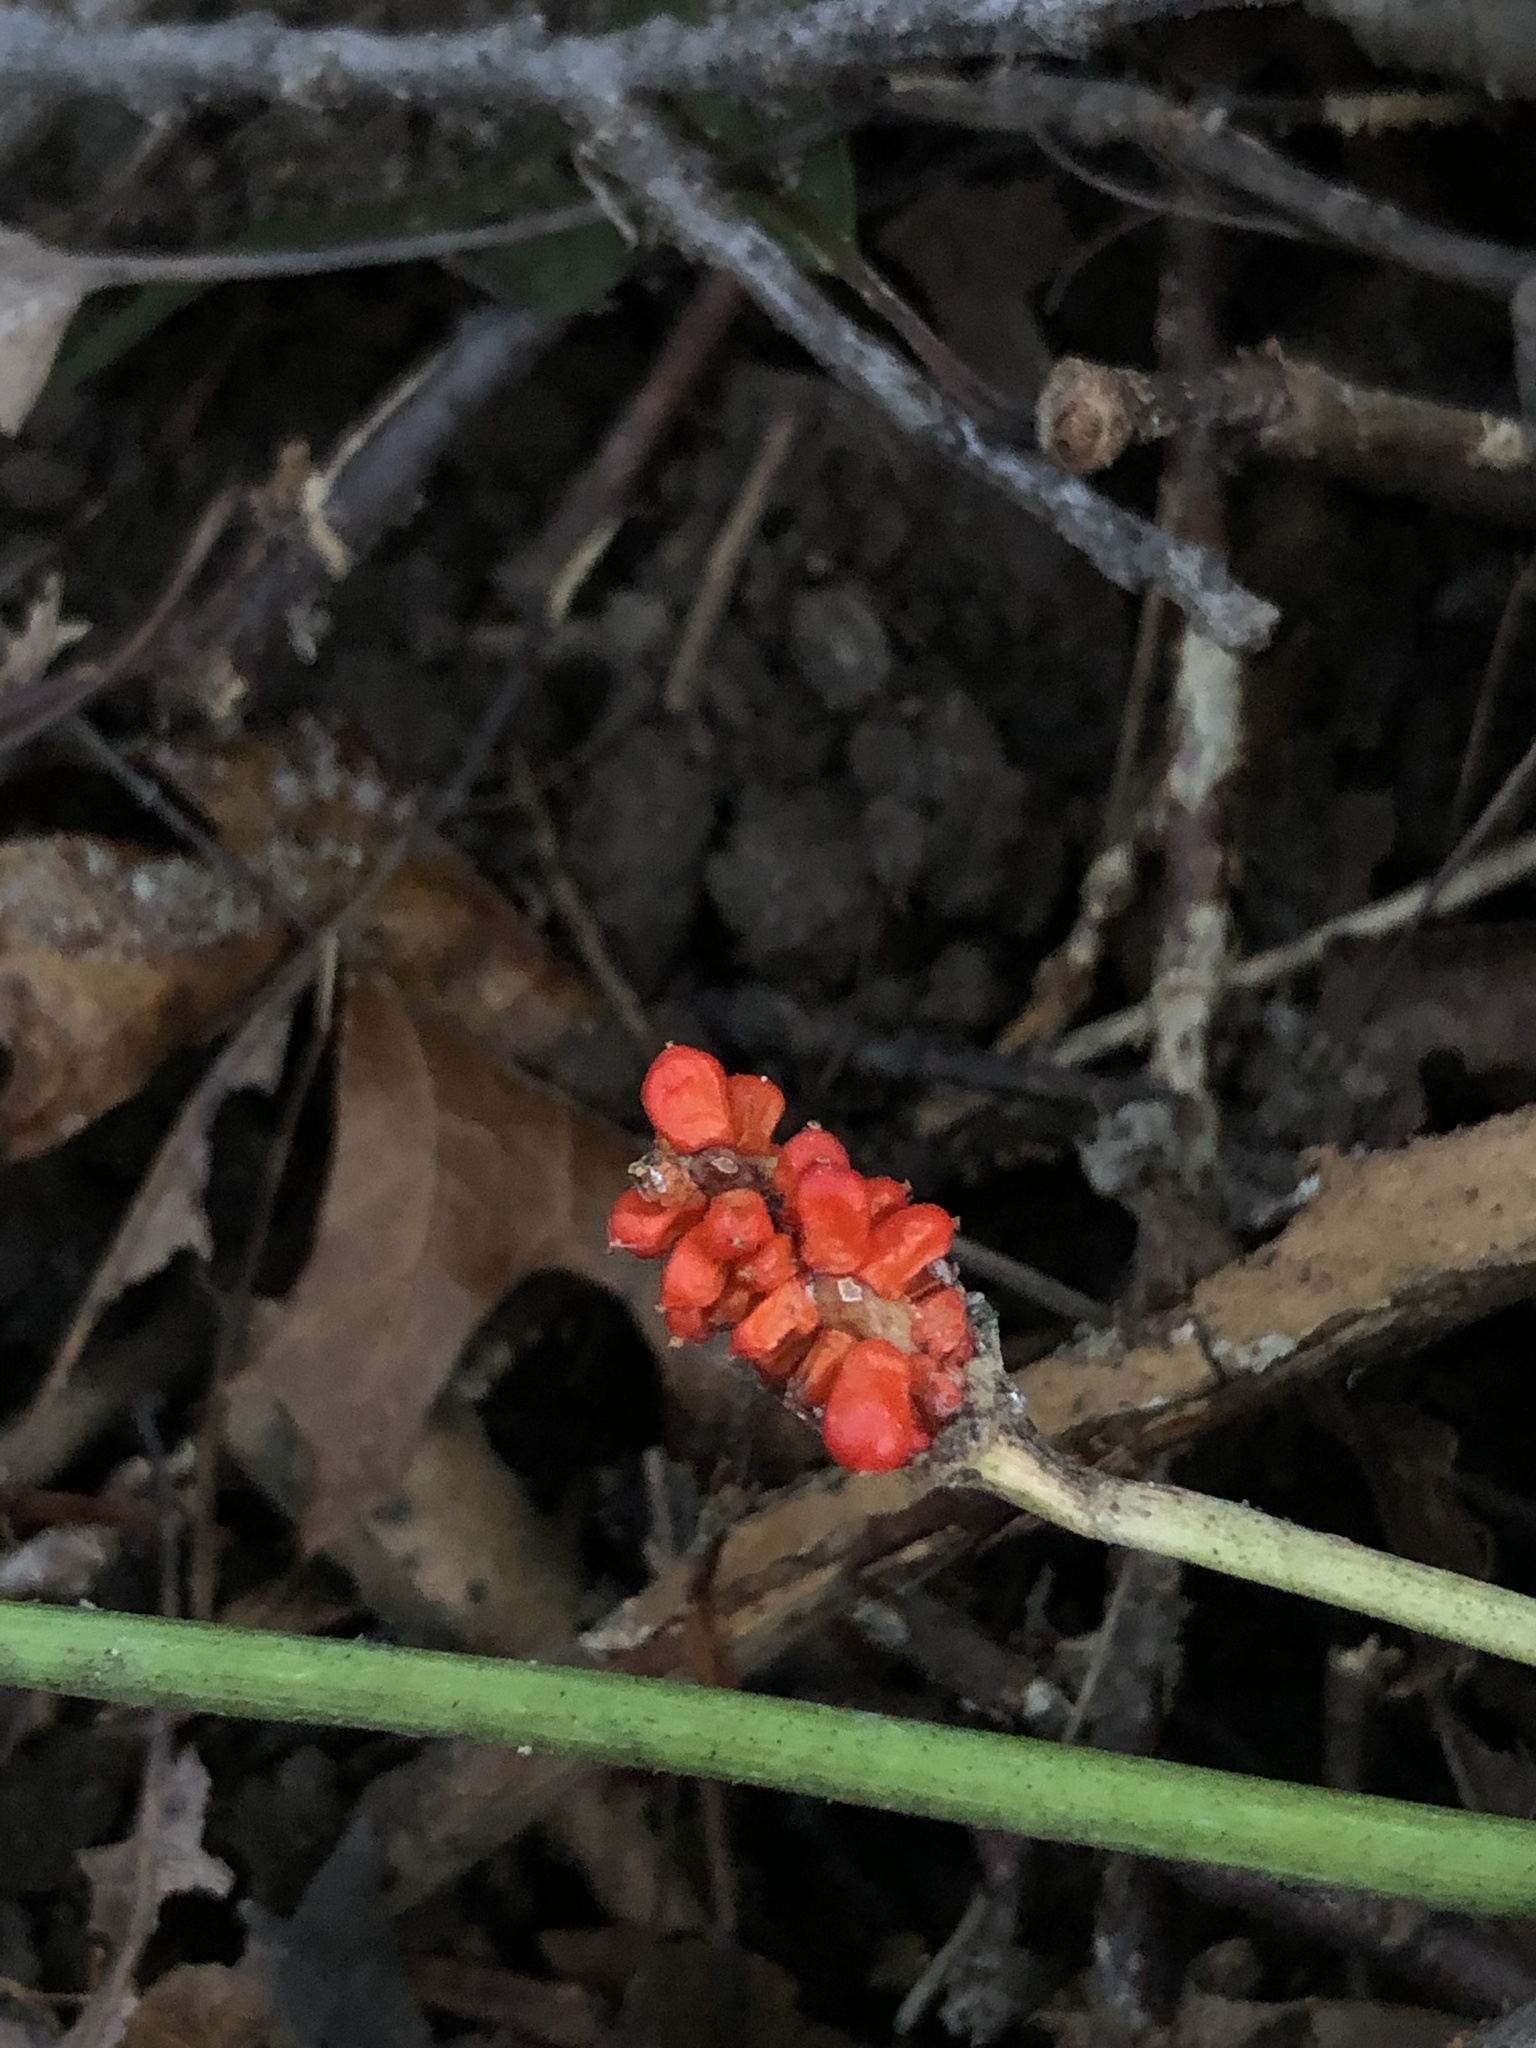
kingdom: Plantae
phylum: Tracheophyta
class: Liliopsida
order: Alismatales
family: Araceae
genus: Arisaema
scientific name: Arisaema triphyllum
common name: Jack-in-the-pulpit
